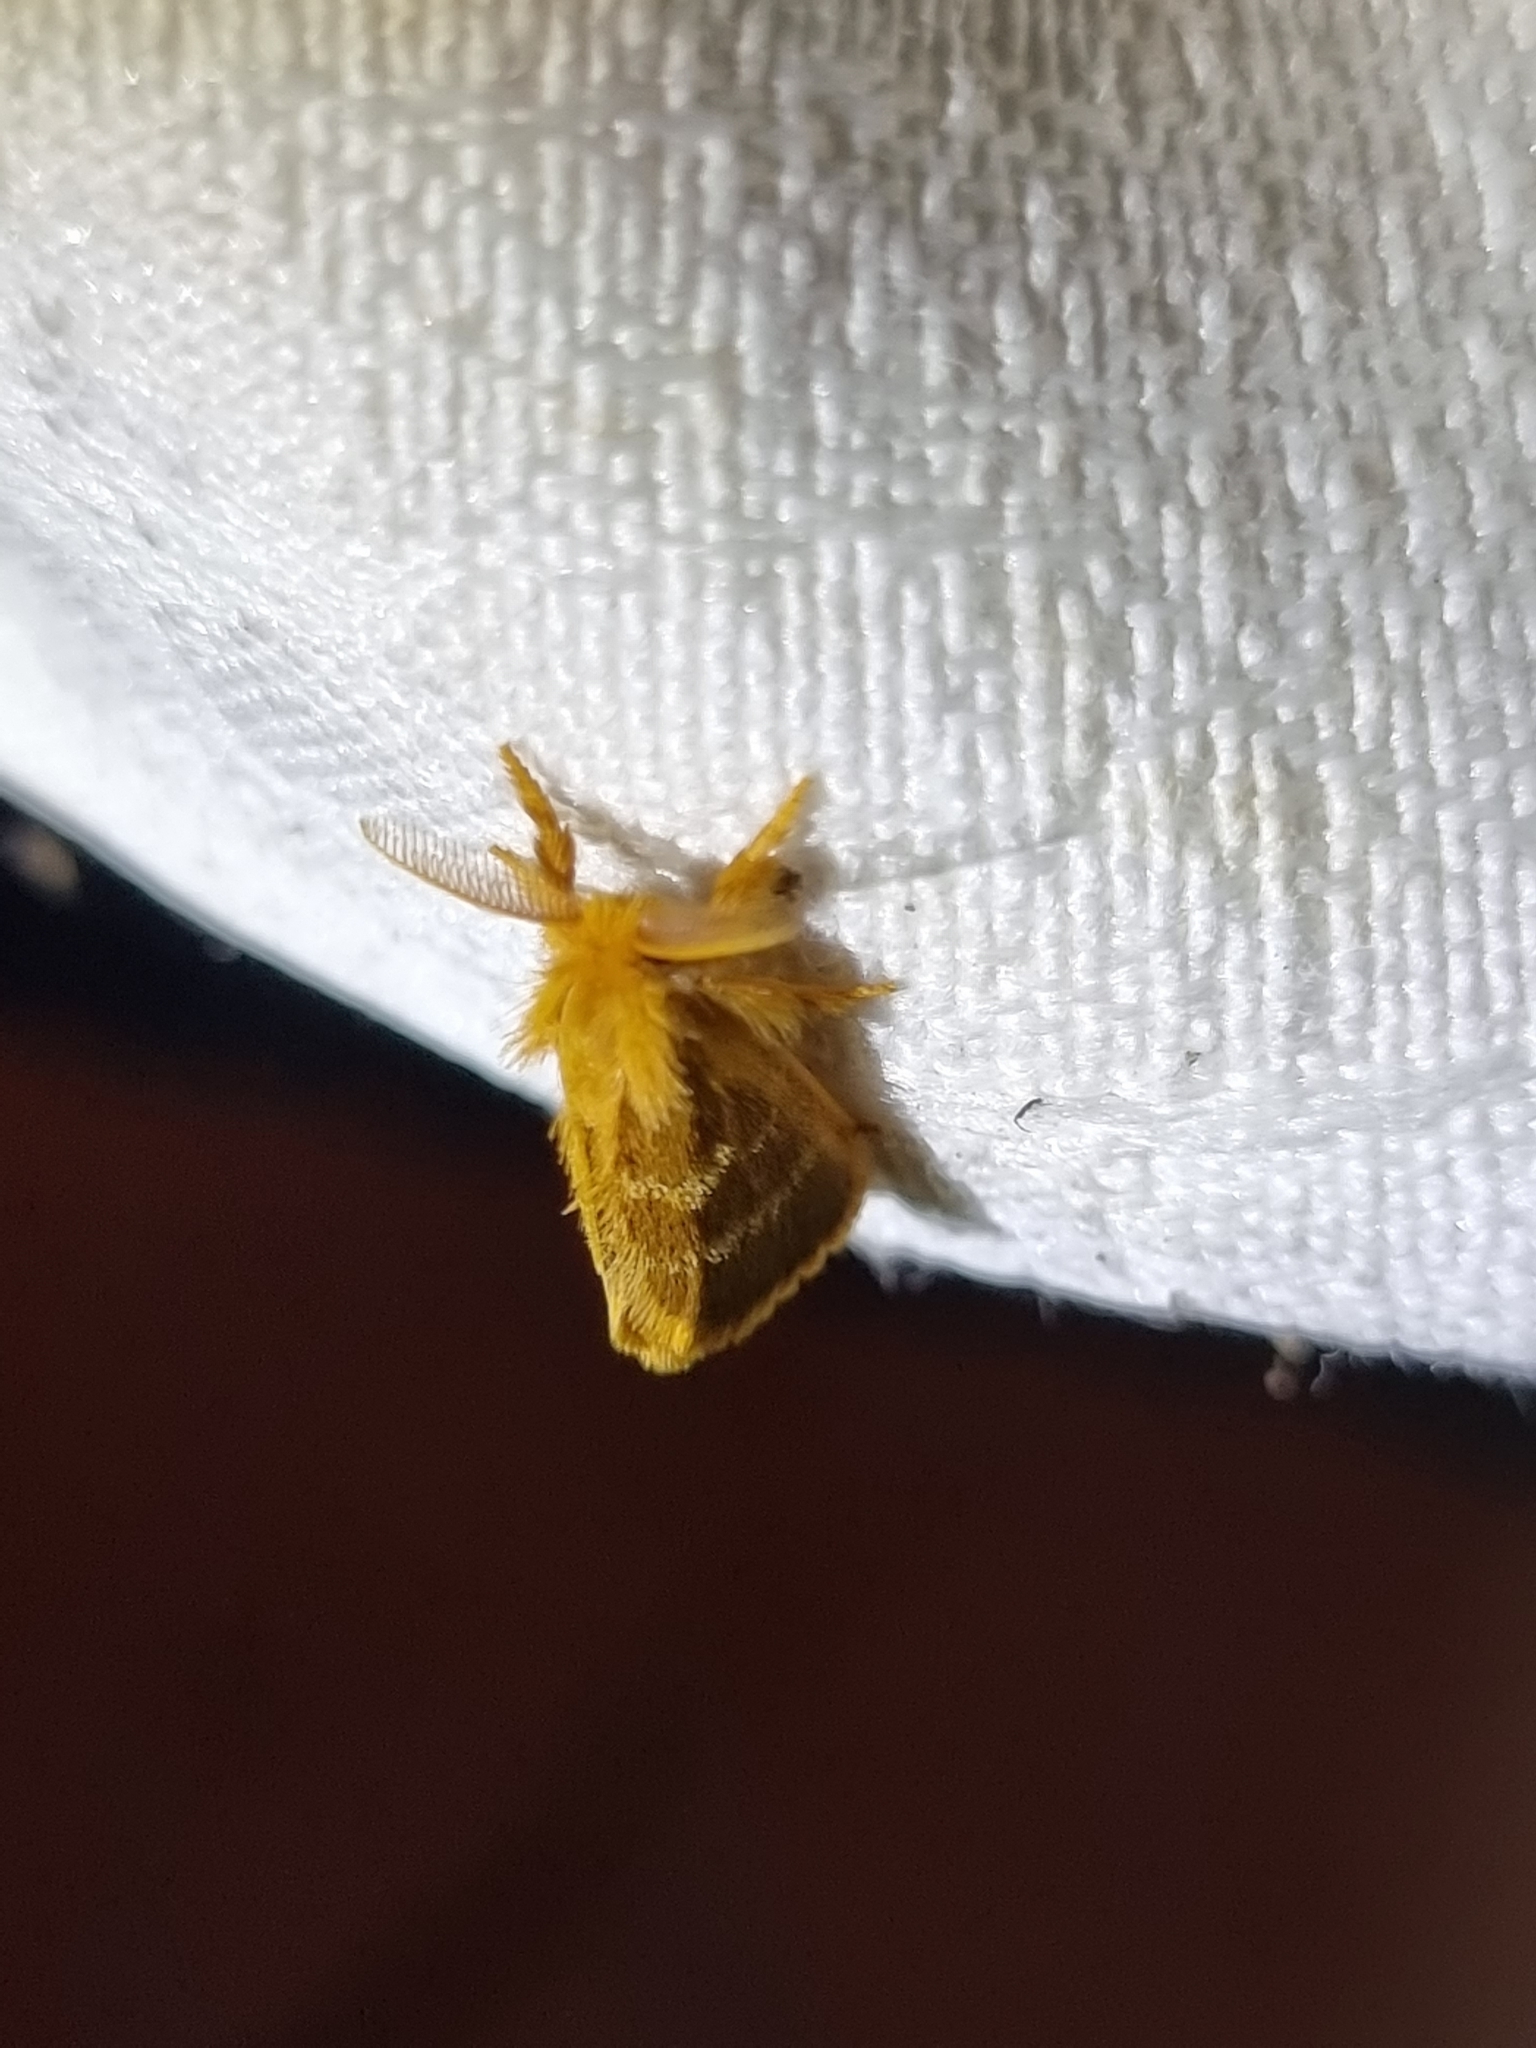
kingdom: Animalia
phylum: Arthropoda
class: Insecta
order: Lepidoptera
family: Erebidae
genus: Euproctis
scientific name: Euproctis lucifuga
